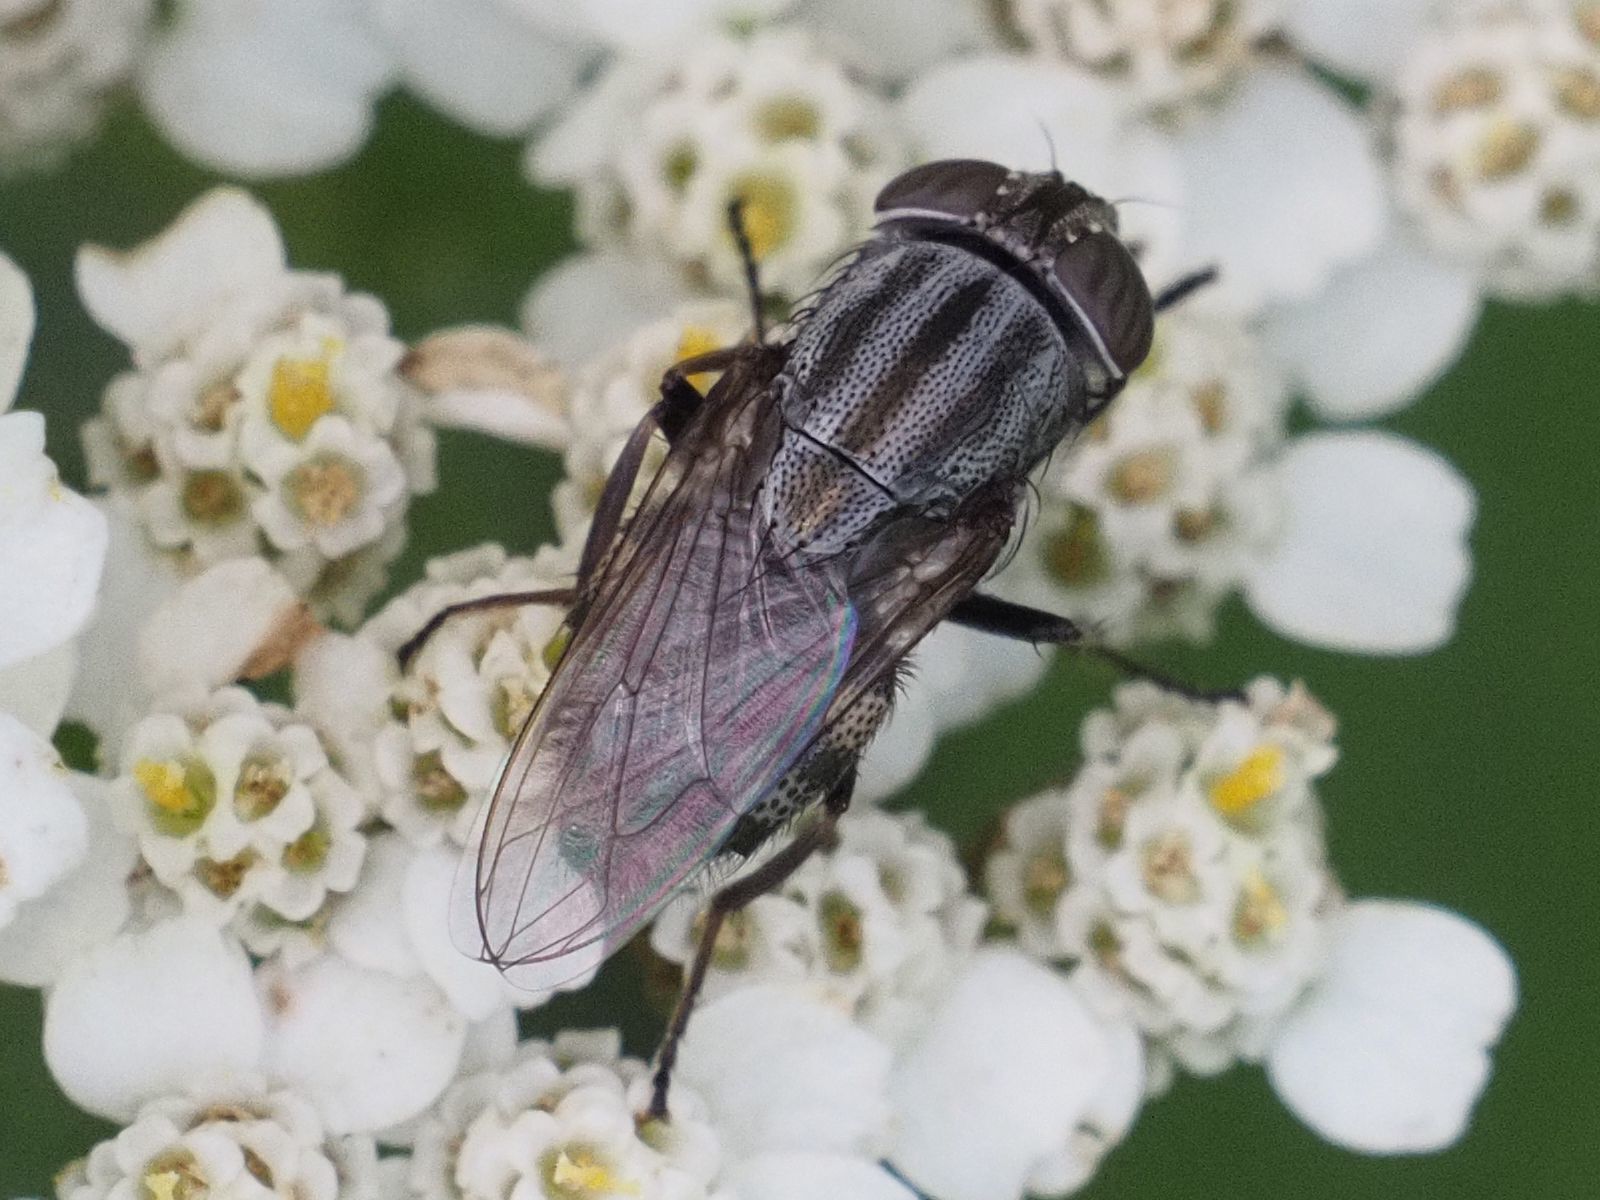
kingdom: Animalia
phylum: Arthropoda
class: Insecta
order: Diptera
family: Calliphoridae
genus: Stomorhina
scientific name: Stomorhina lunata
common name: Locust blowfly
